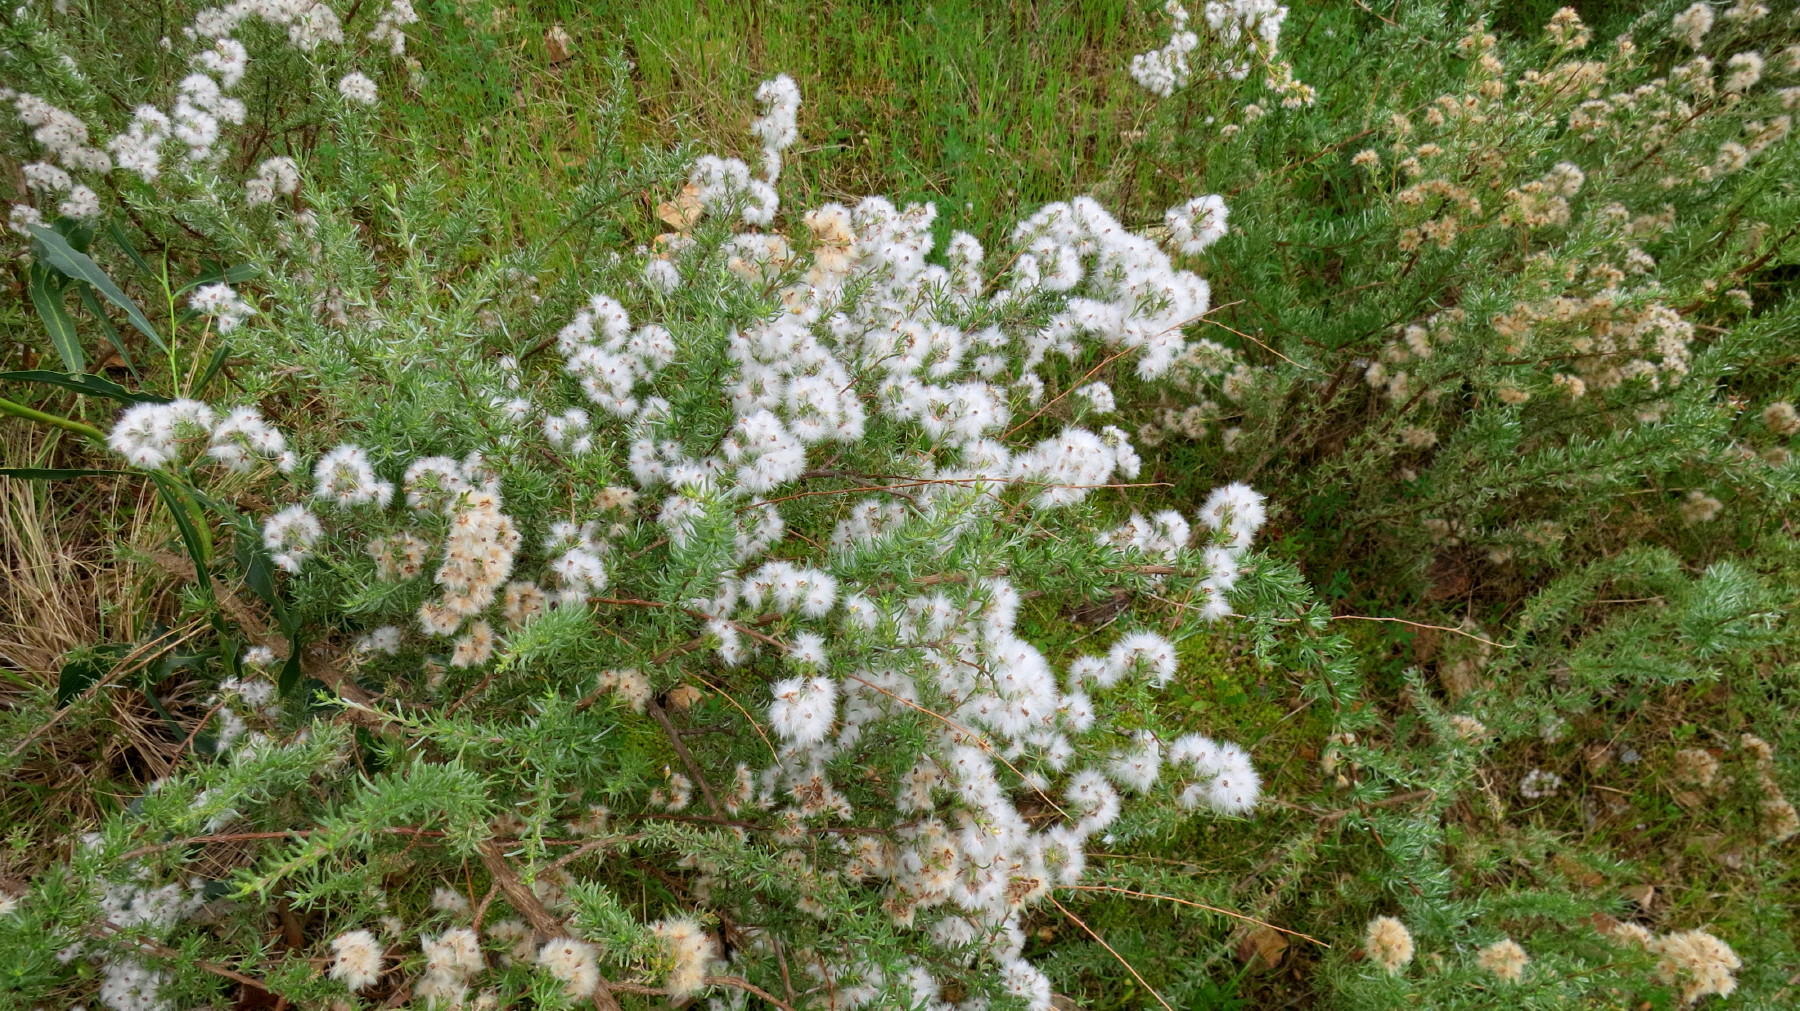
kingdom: Plantae
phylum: Tracheophyta
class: Magnoliopsida
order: Asterales
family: Asteraceae
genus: Eriocephalus
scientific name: Eriocephalus africanus
